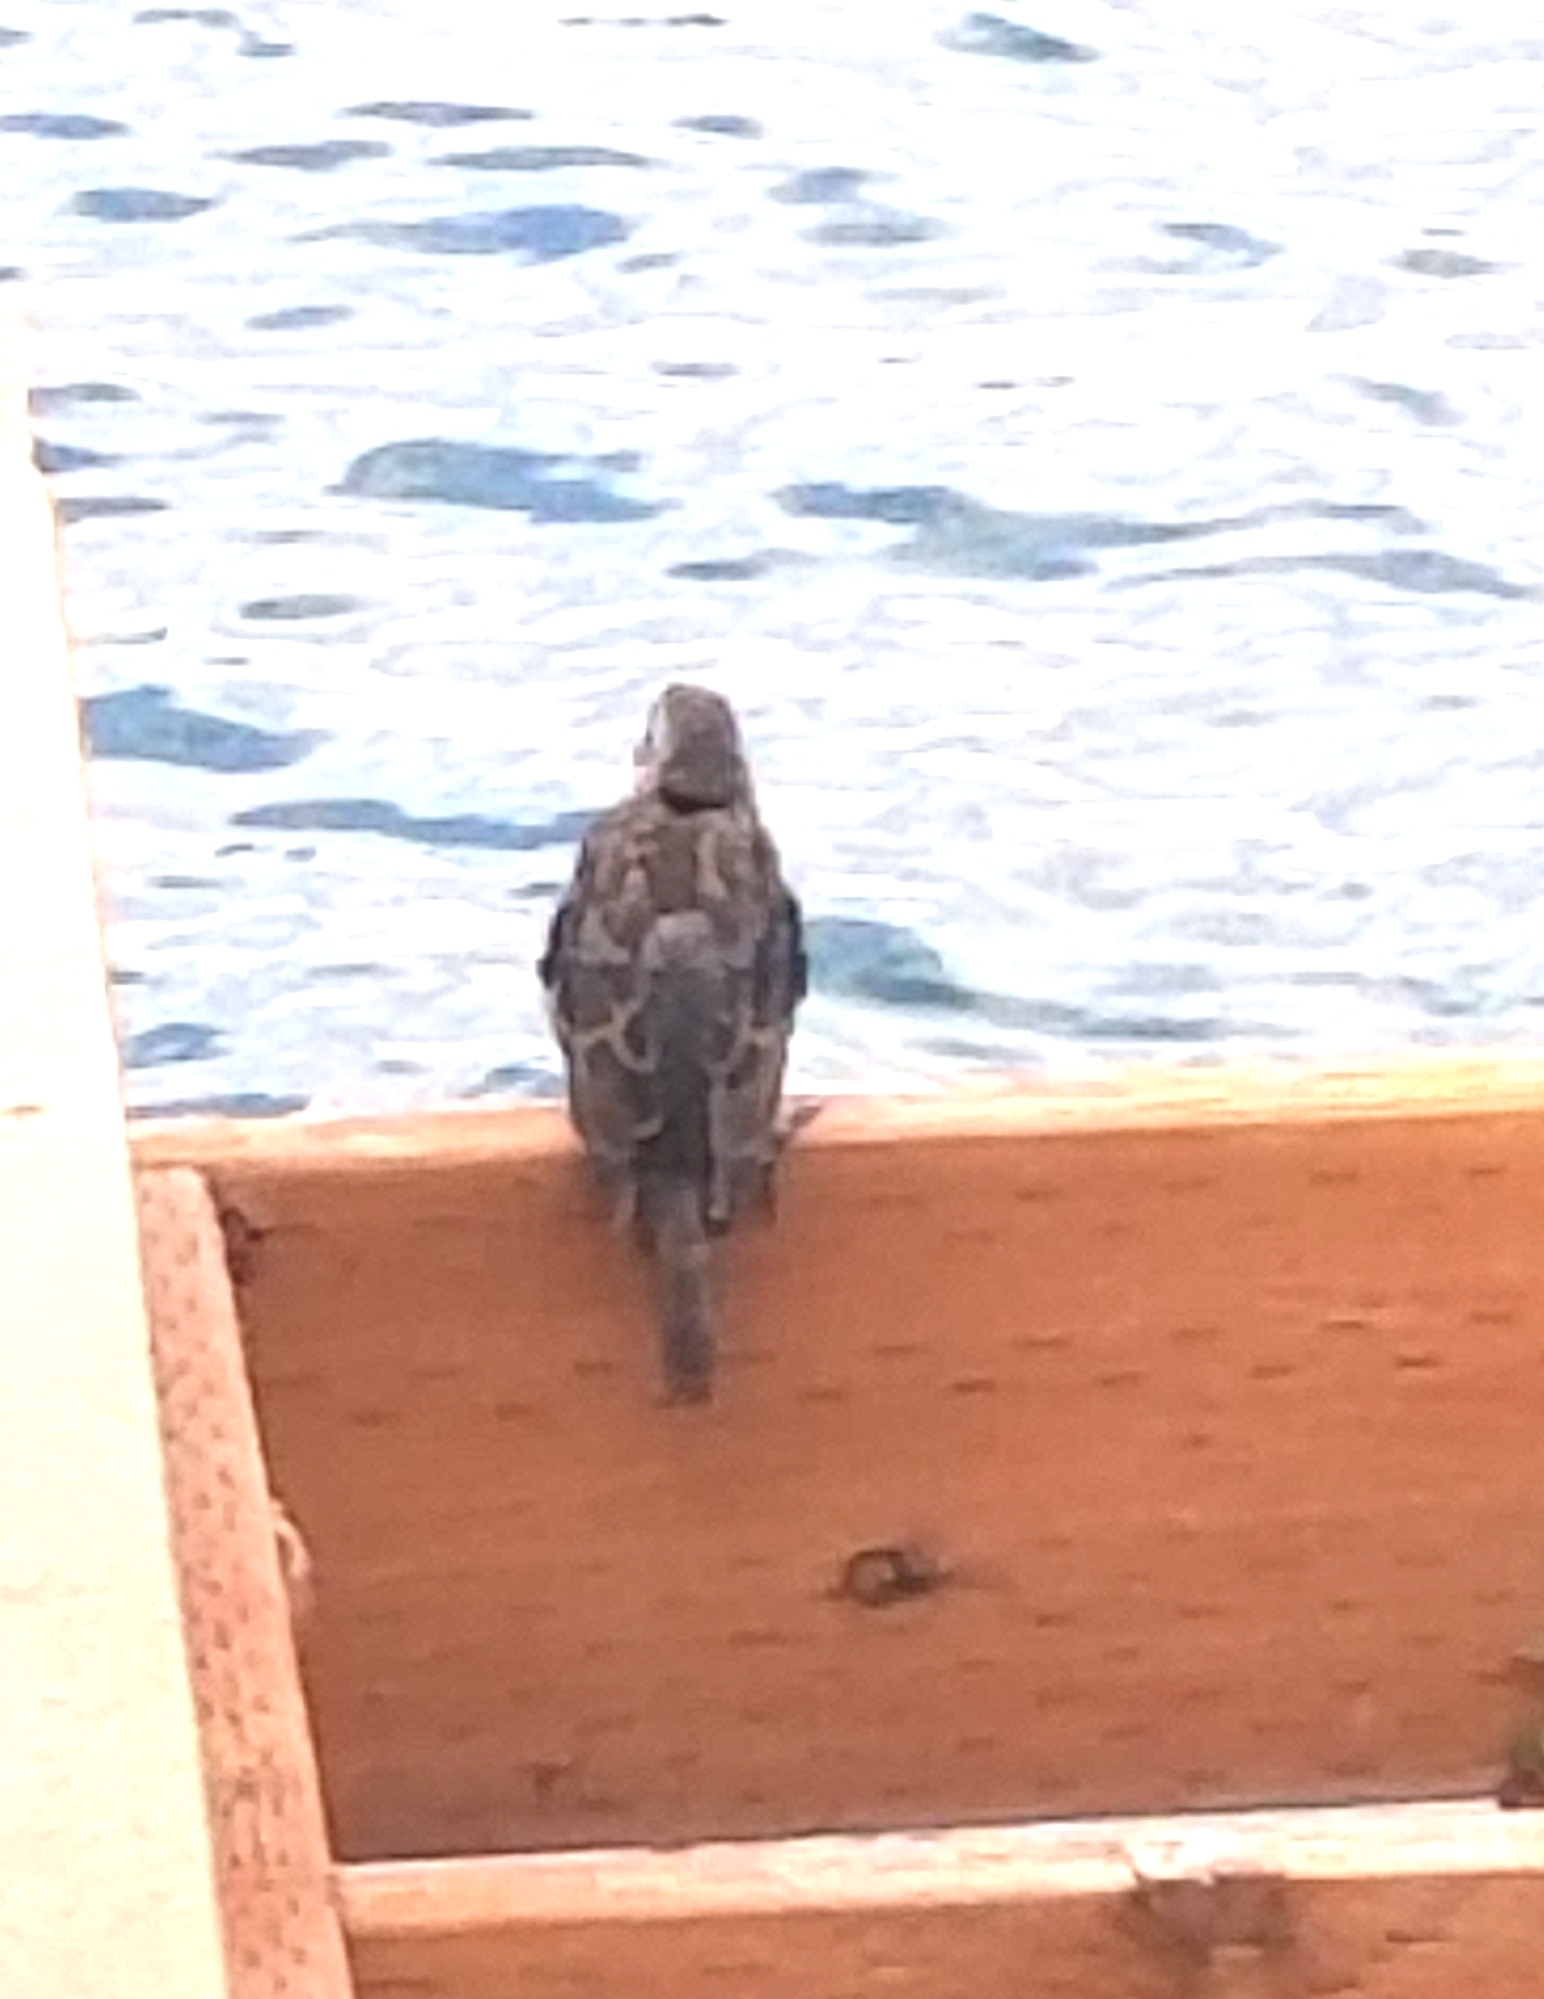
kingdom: Animalia
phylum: Chordata
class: Aves
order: Passeriformes
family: Passeridae
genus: Passer
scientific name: Passer domesticus
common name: House sparrow
